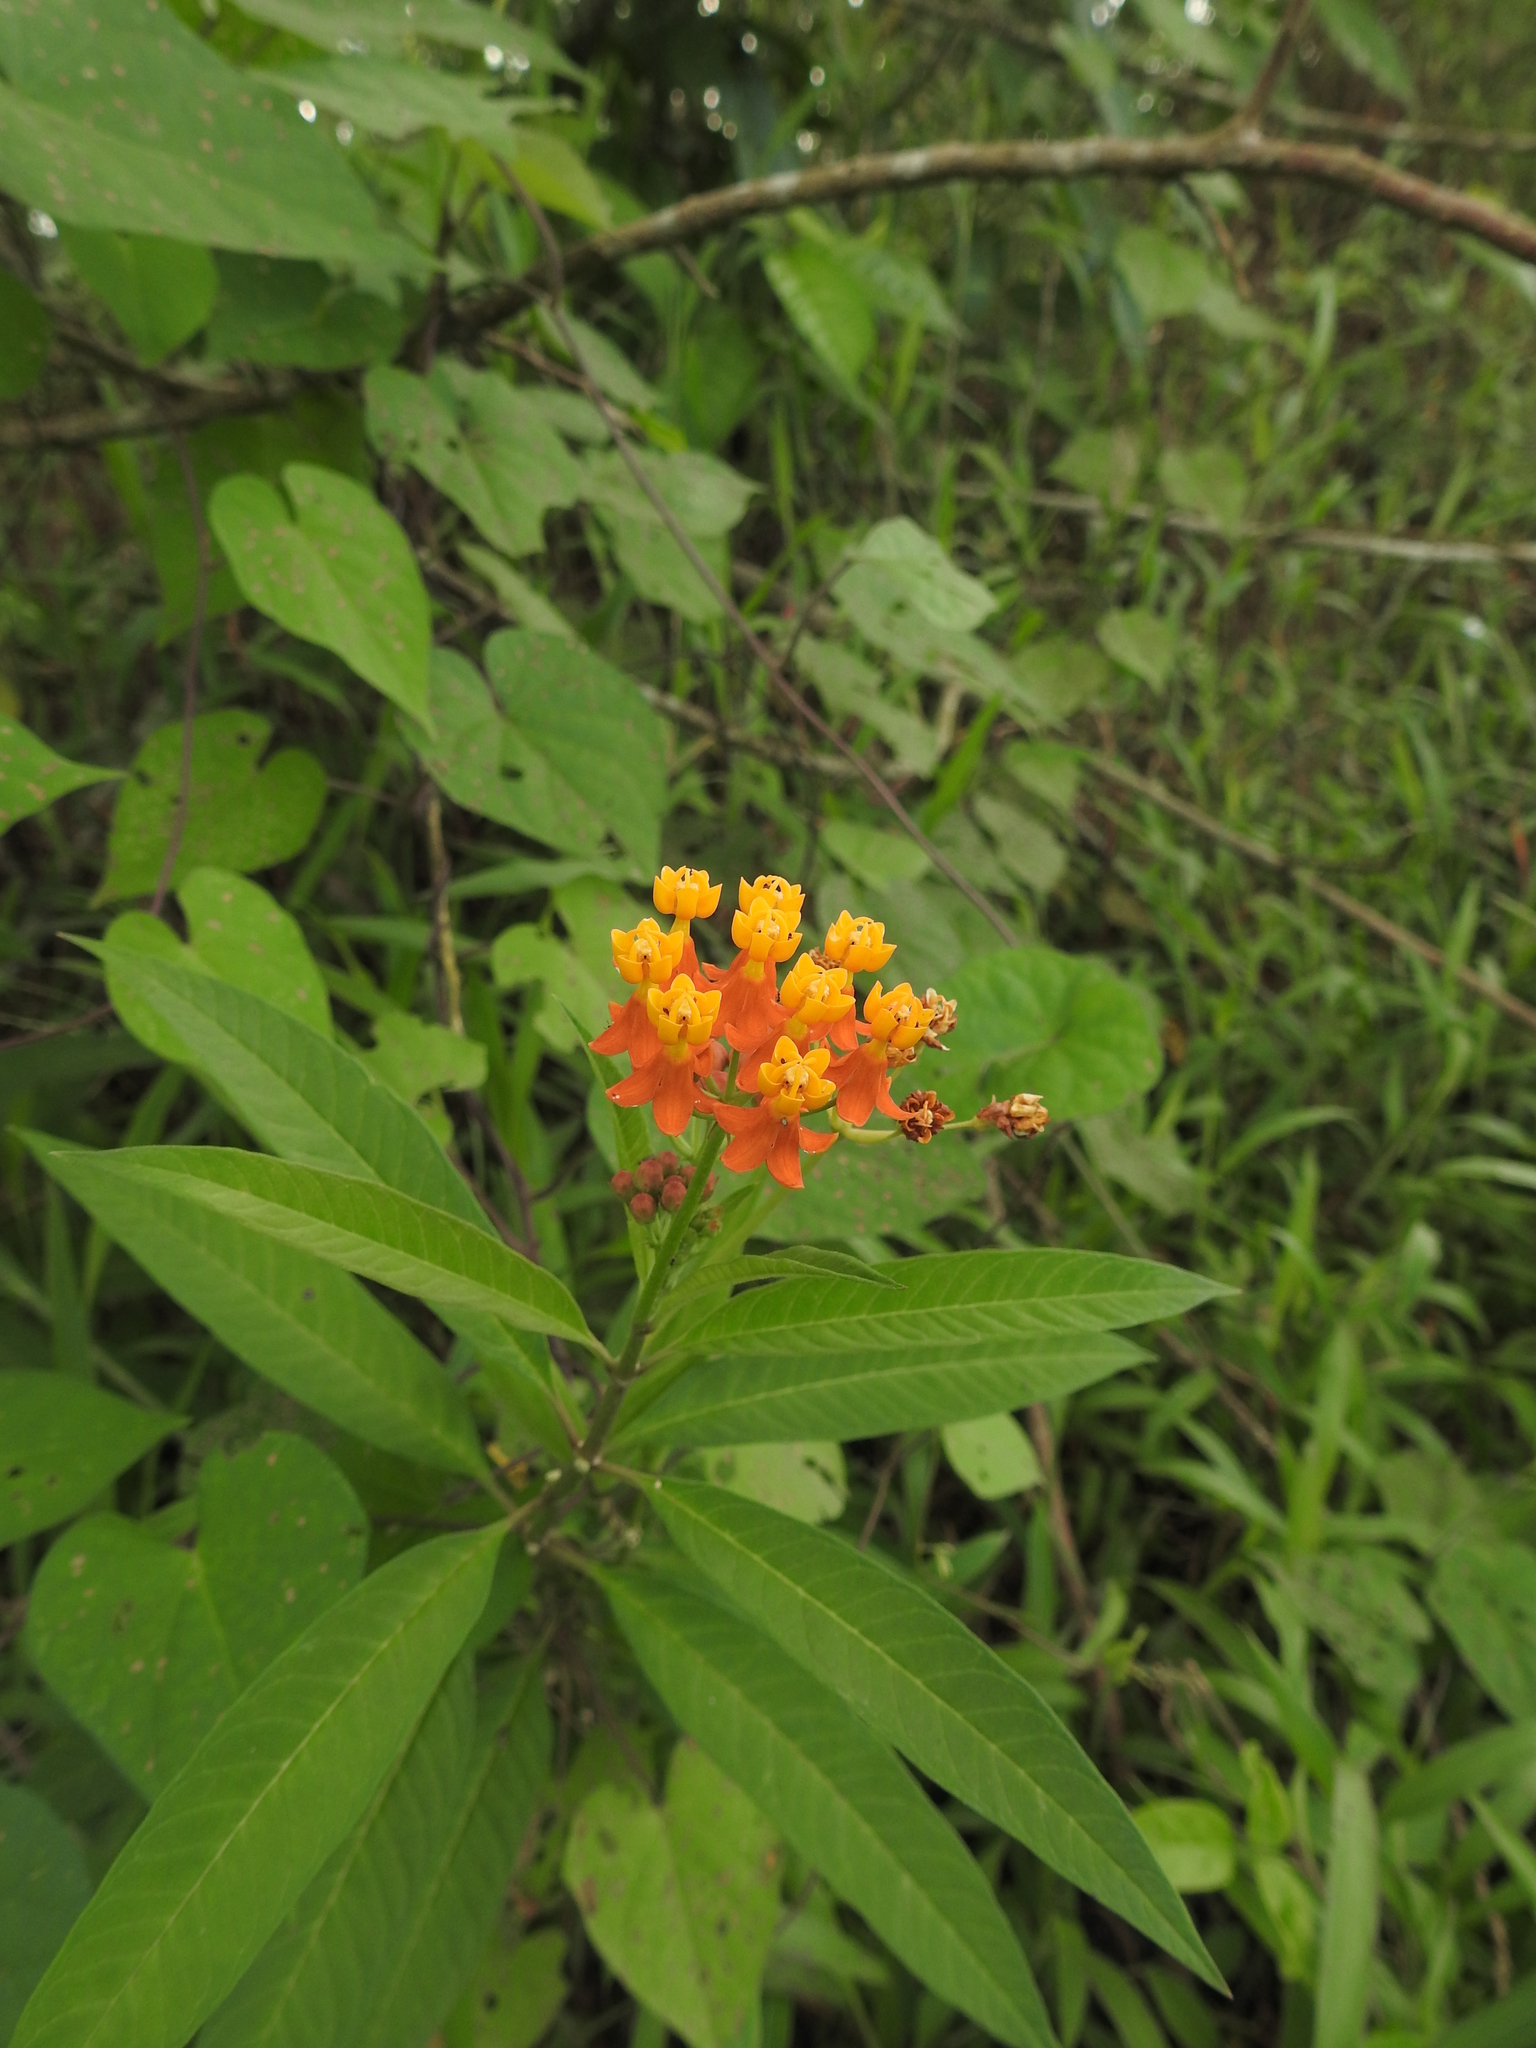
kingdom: Plantae
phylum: Tracheophyta
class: Magnoliopsida
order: Gentianales
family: Apocynaceae
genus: Asclepias
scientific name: Asclepias curassavica
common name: Bloodflower
